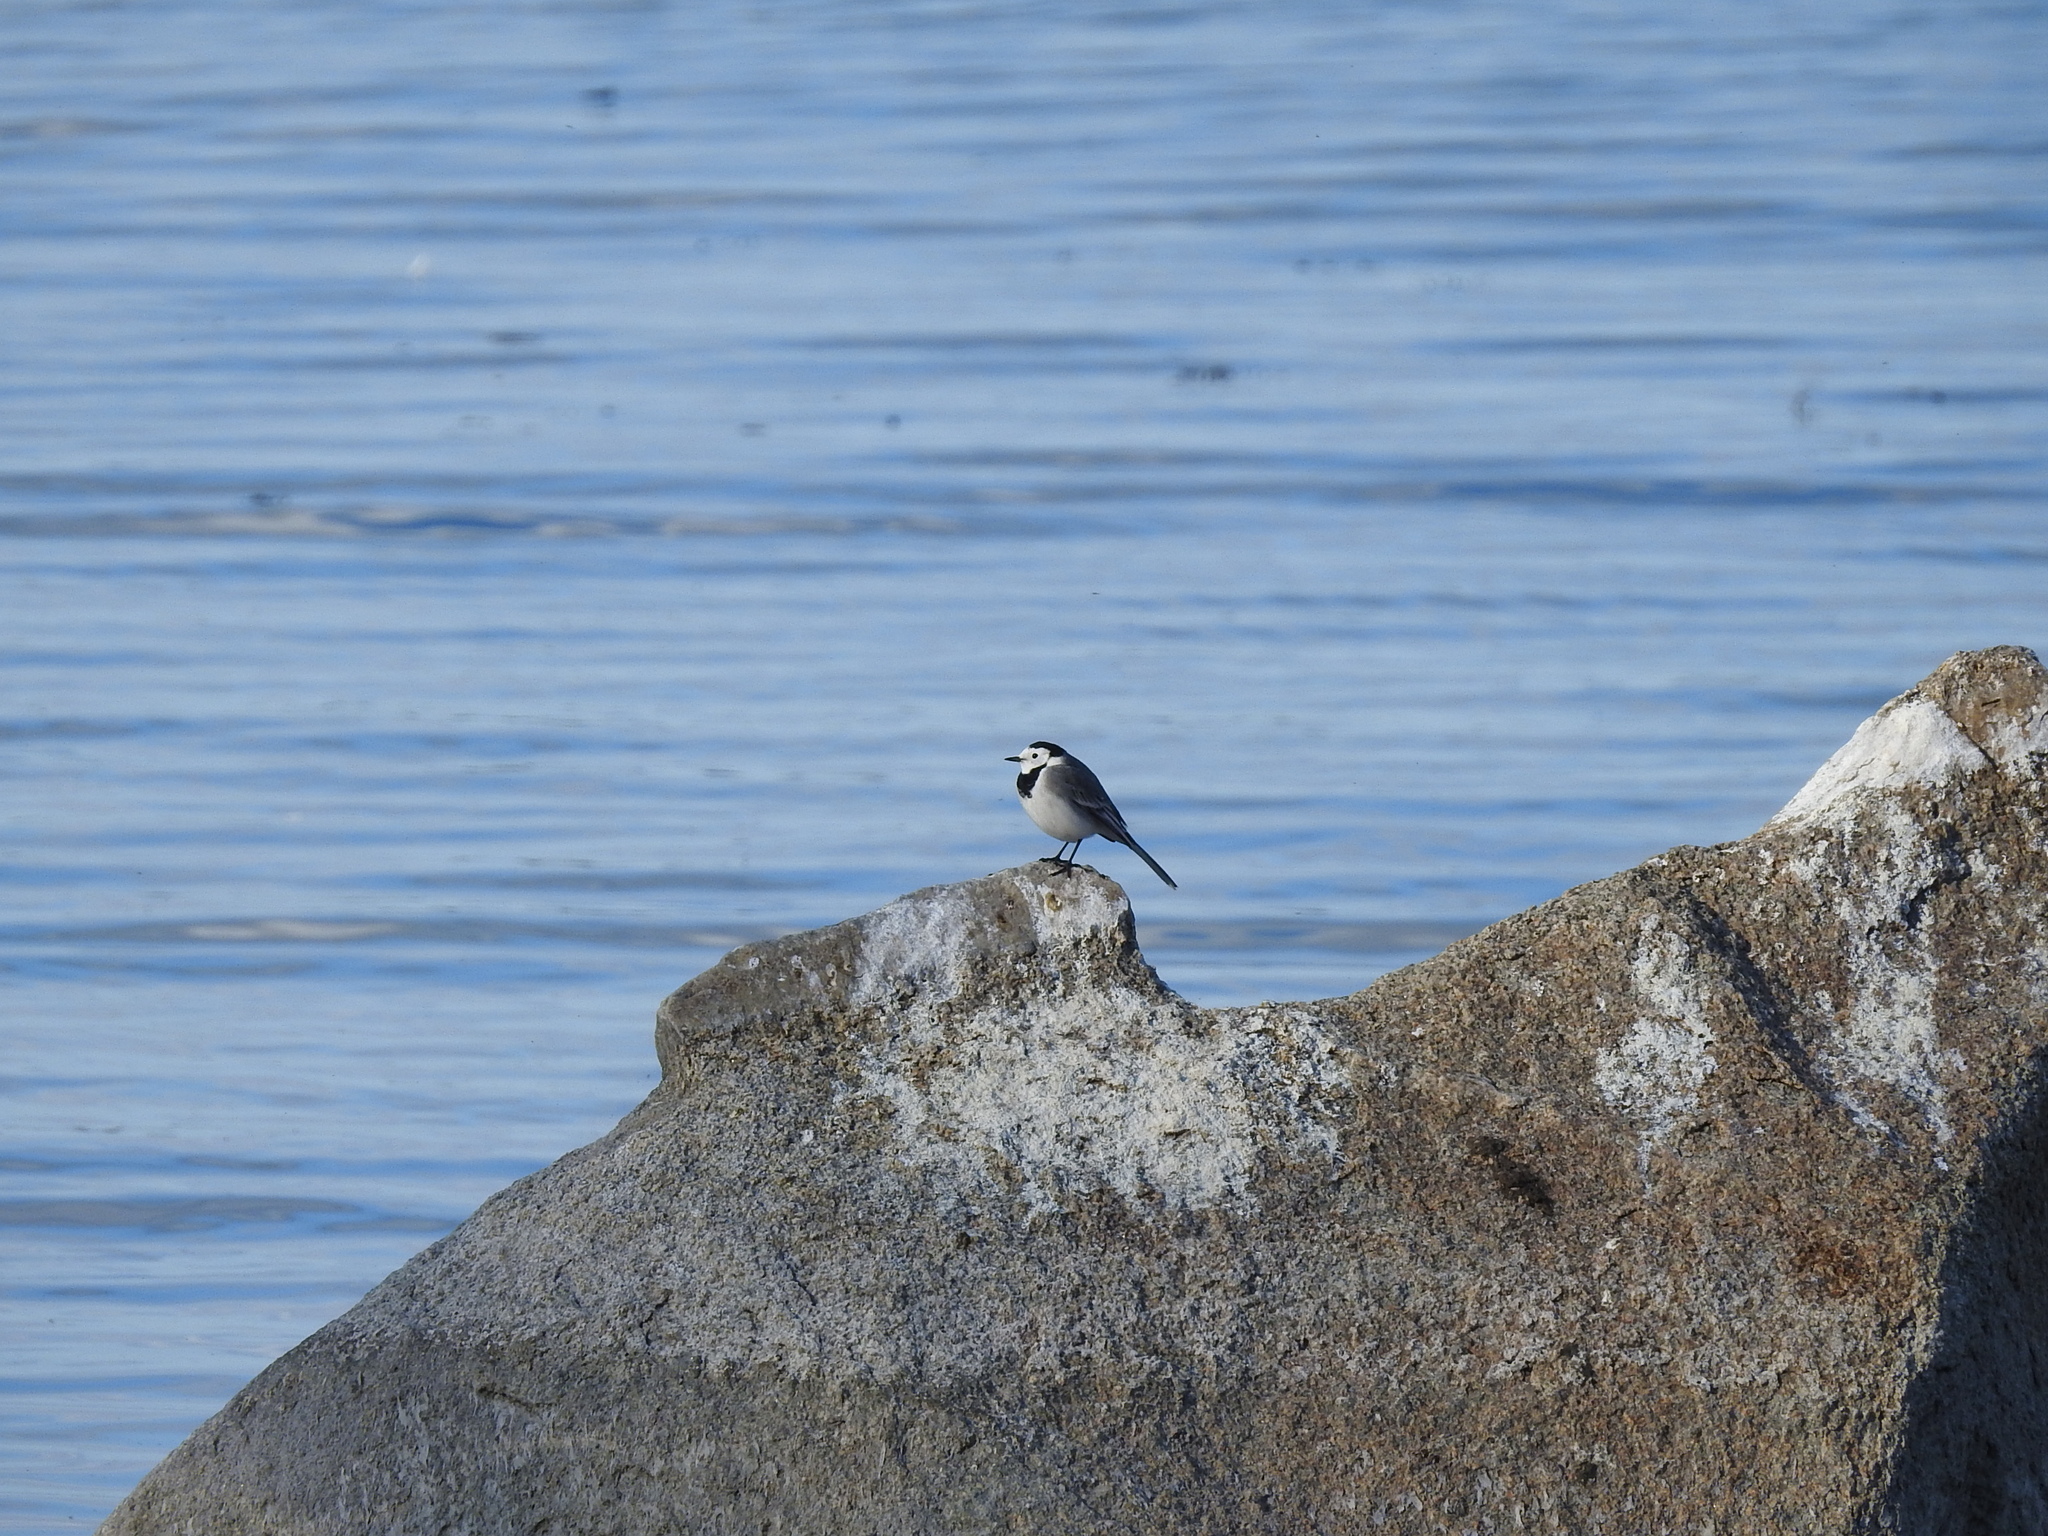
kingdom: Animalia
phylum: Chordata
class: Aves
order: Passeriformes
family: Motacillidae
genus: Motacilla
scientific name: Motacilla alba
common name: White wagtail
